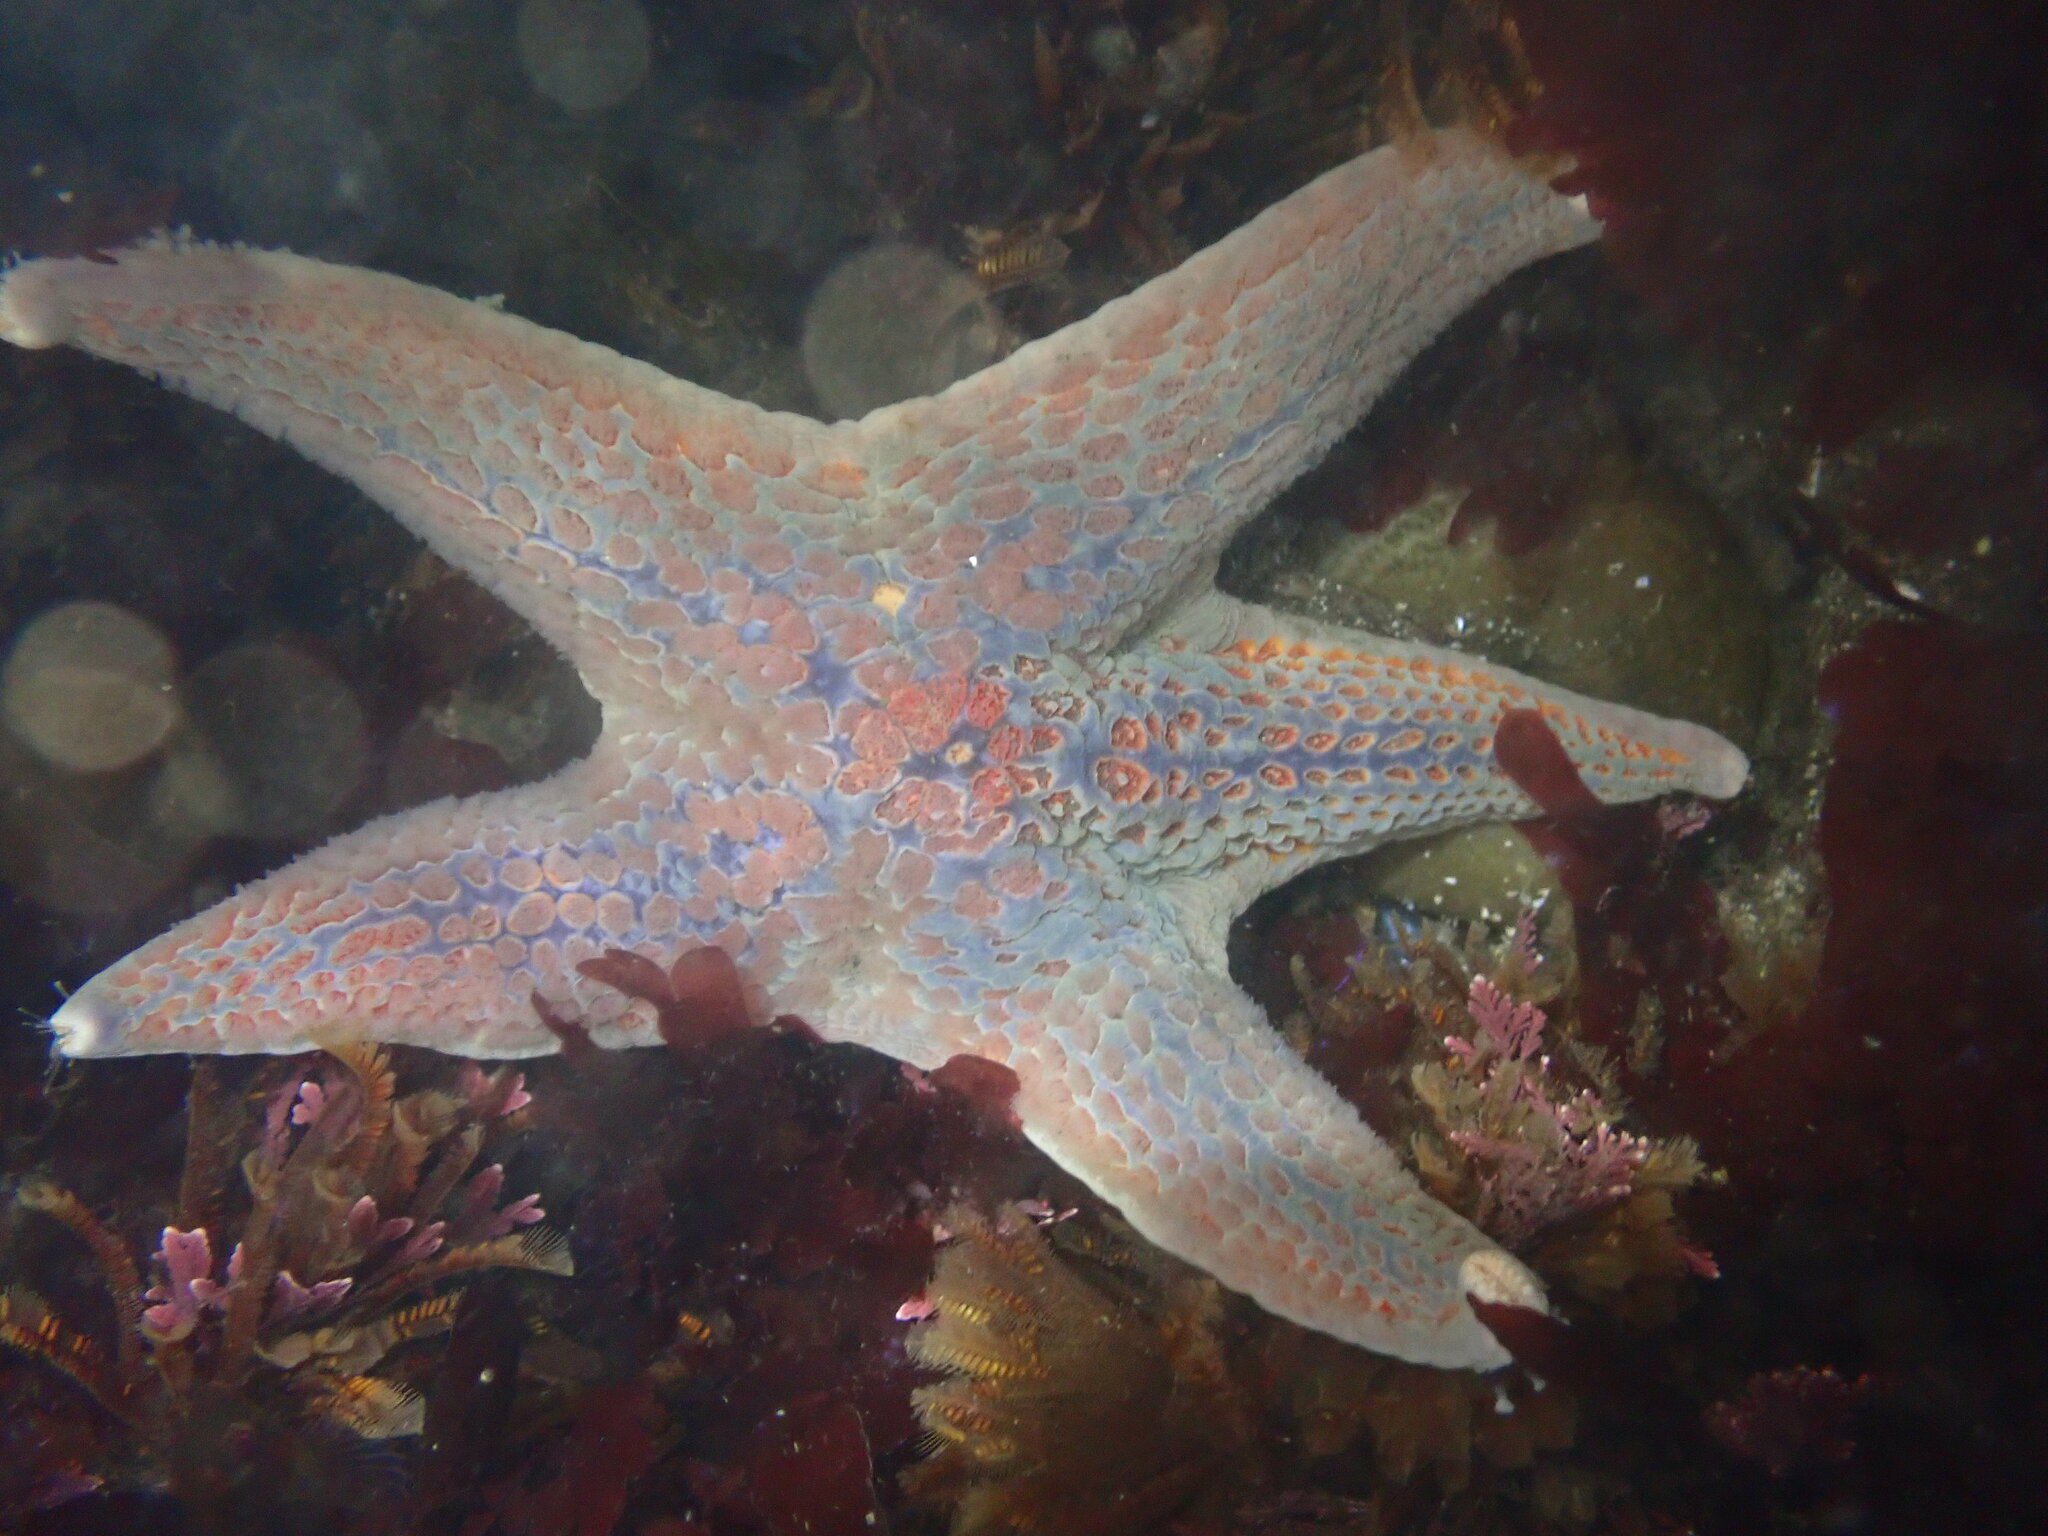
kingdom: Animalia
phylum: Echinodermata
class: Asteroidea
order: Valvatida
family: Asteropseidae
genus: Dermasterias
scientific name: Dermasterias imbricata
